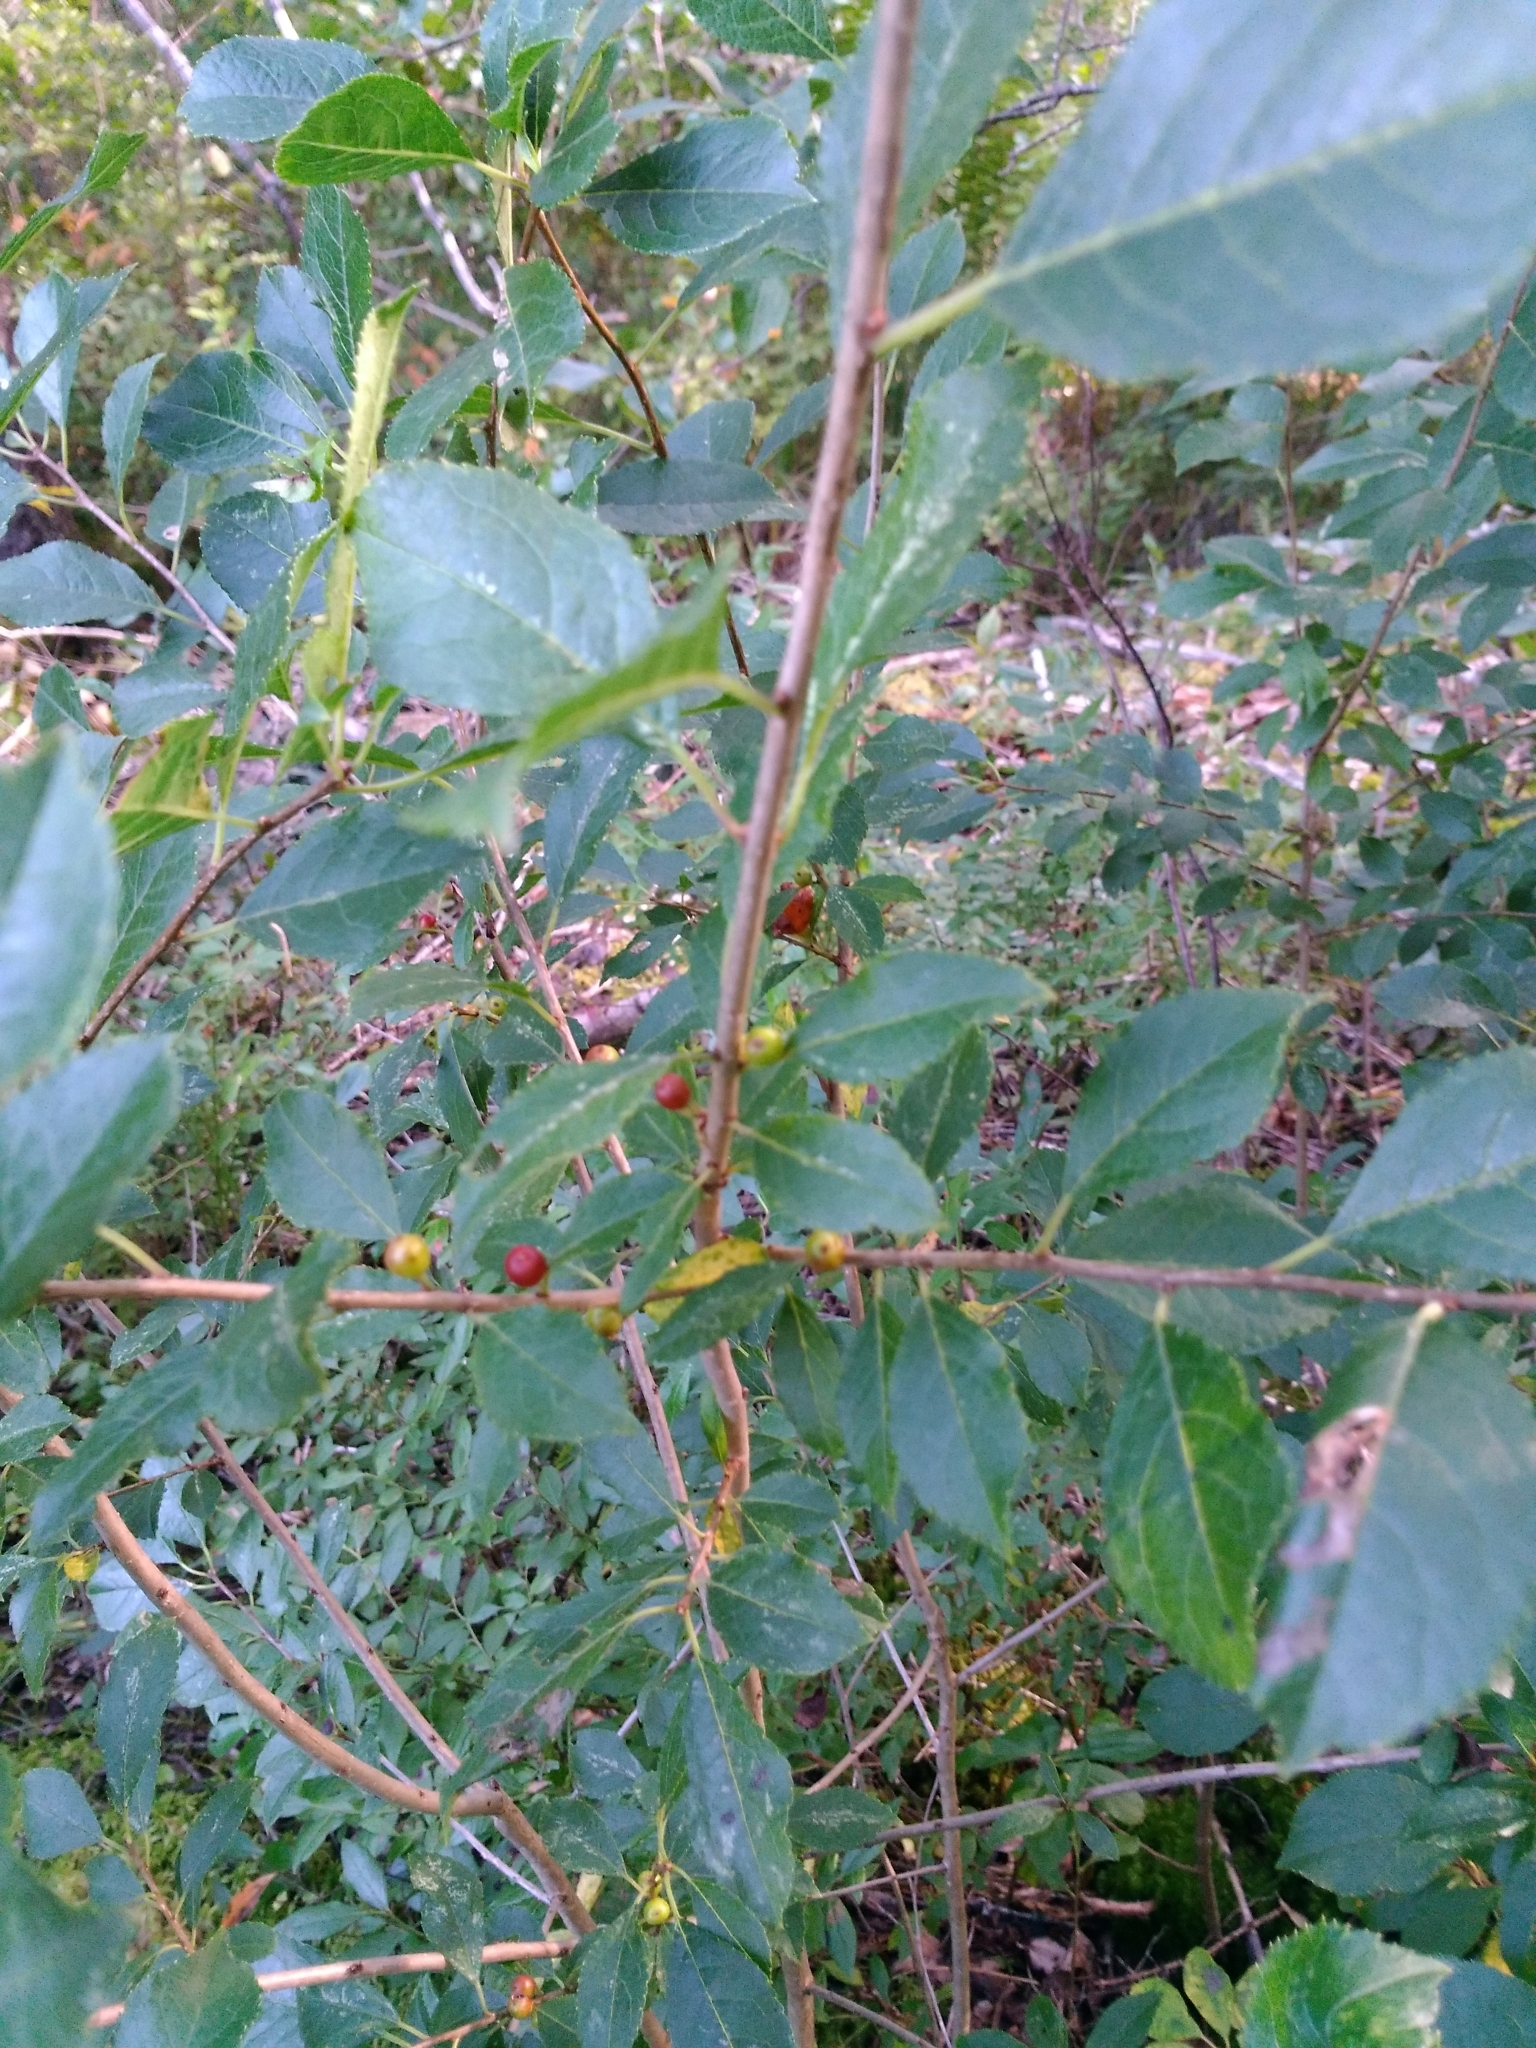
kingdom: Plantae
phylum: Tracheophyta
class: Magnoliopsida
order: Aquifoliales
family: Aquifoliaceae
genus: Ilex
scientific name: Ilex verticillata
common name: Virginia winterberry
